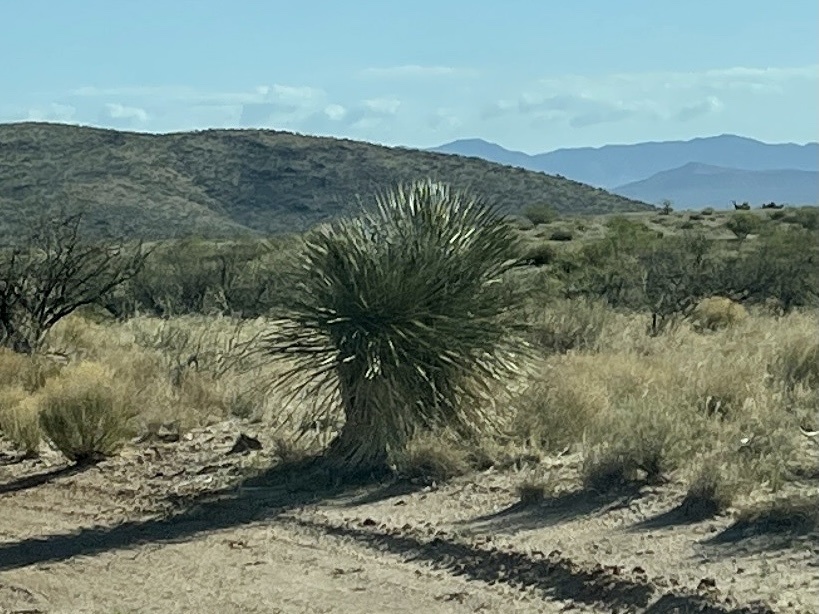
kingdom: Plantae
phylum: Tracheophyta
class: Liliopsida
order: Asparagales
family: Asparagaceae
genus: Yucca
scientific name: Yucca elata
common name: Palmella
